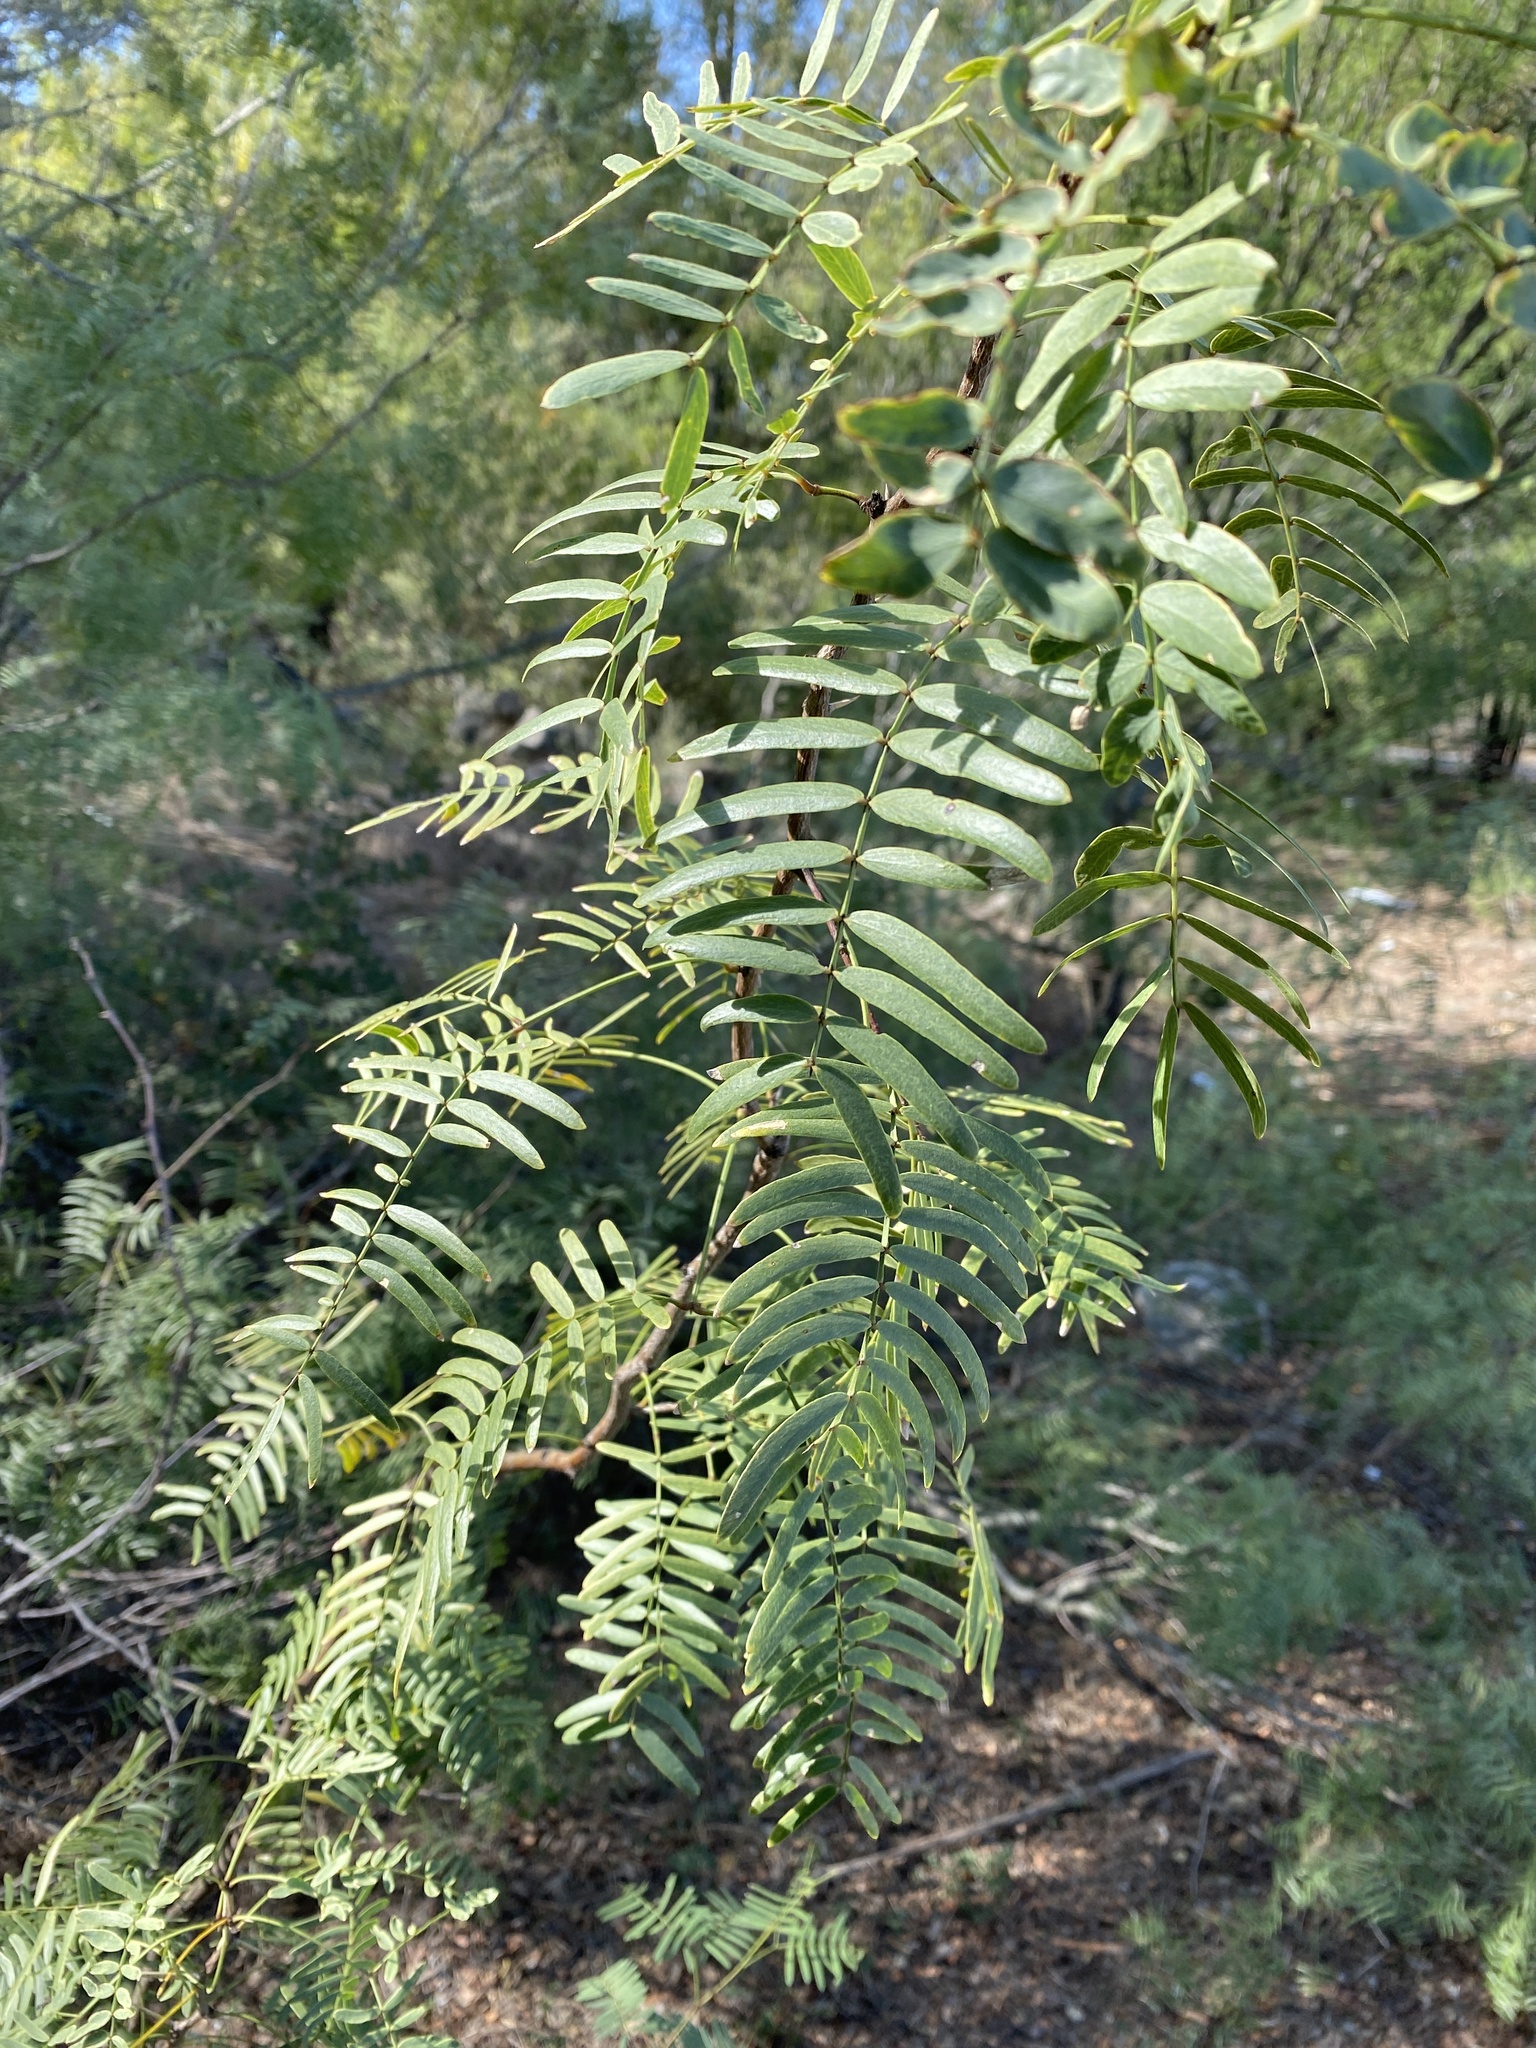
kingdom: Plantae
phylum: Tracheophyta
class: Magnoliopsida
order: Fabales
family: Fabaceae
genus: Prosopis
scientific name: Prosopis glandulosa
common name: Honey mesquite
